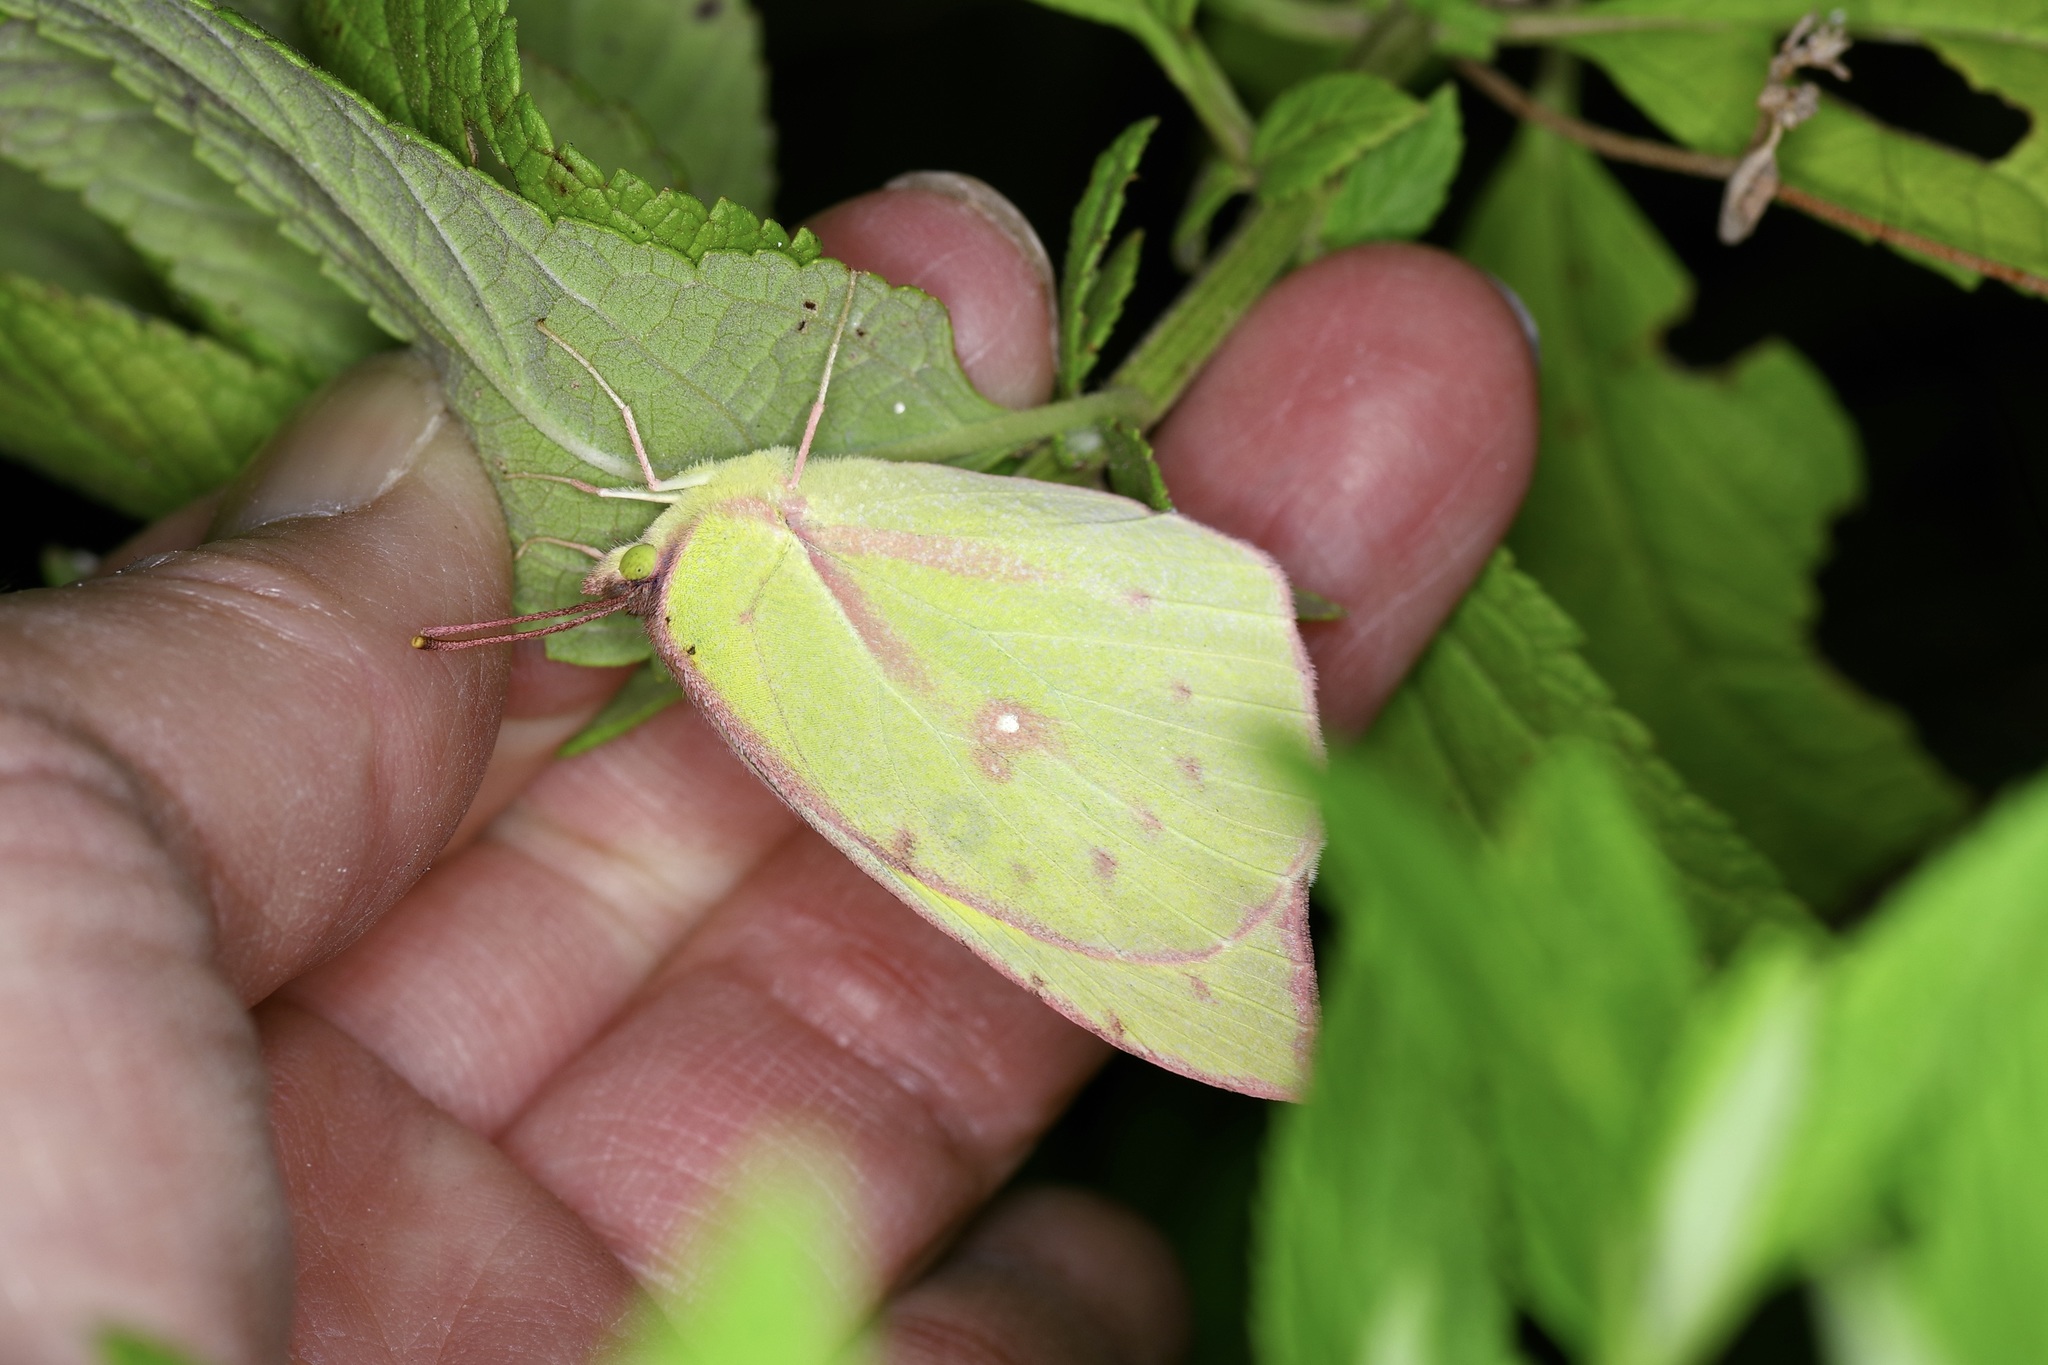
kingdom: Animalia
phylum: Arthropoda
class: Insecta
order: Lepidoptera
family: Pieridae
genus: Zerene
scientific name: Zerene cesonia
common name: Southern dogface
